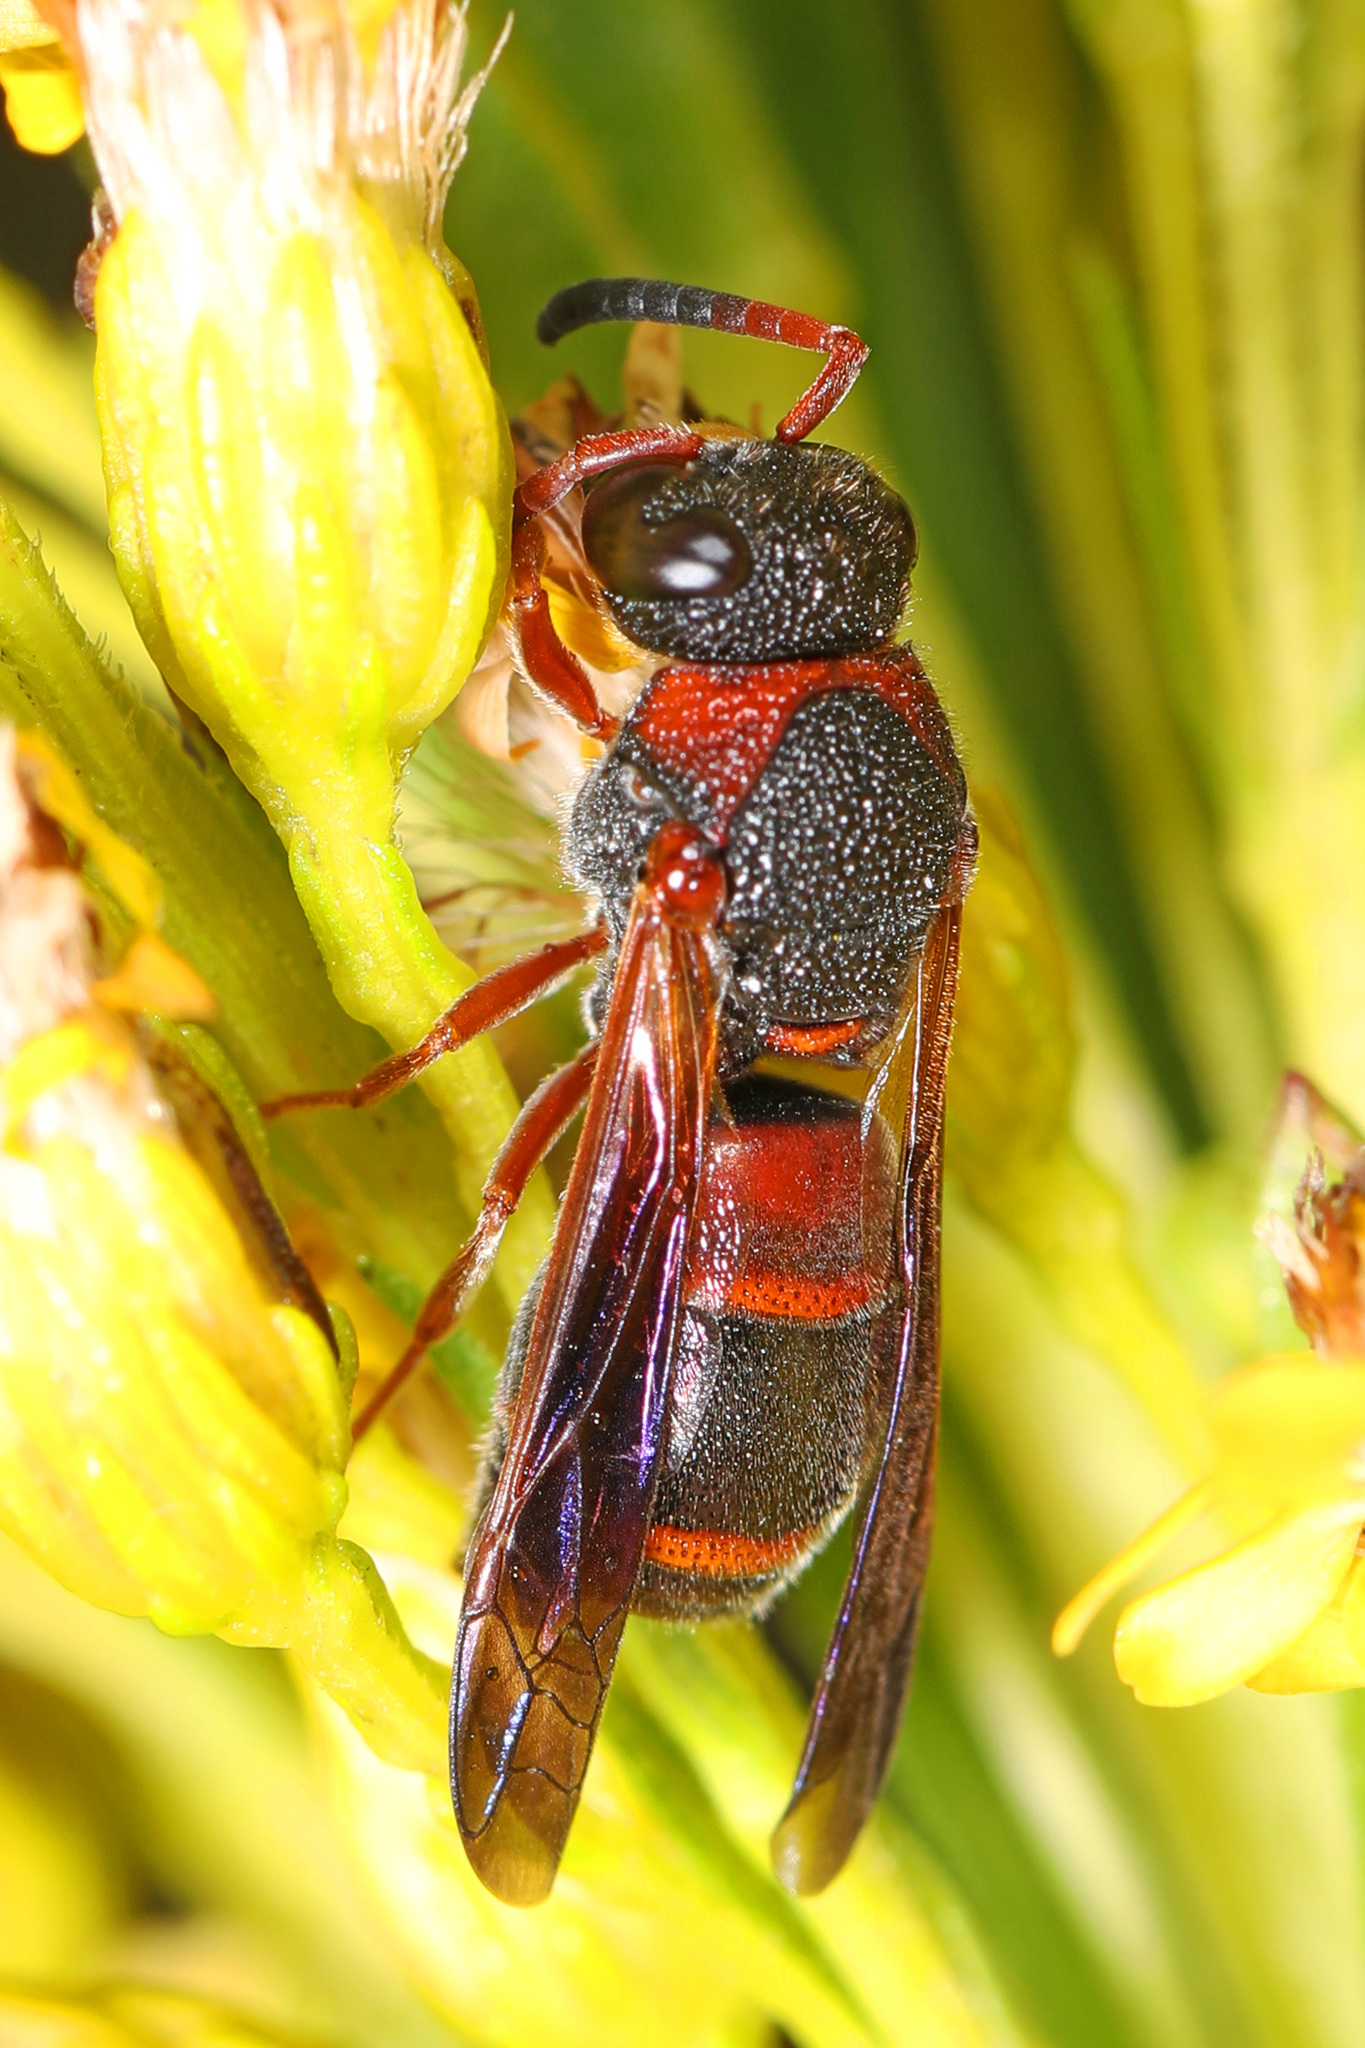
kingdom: Animalia
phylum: Arthropoda
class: Insecta
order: Hymenoptera
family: Eumenidae
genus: Pachodynerus
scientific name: Pachodynerus erynnis
